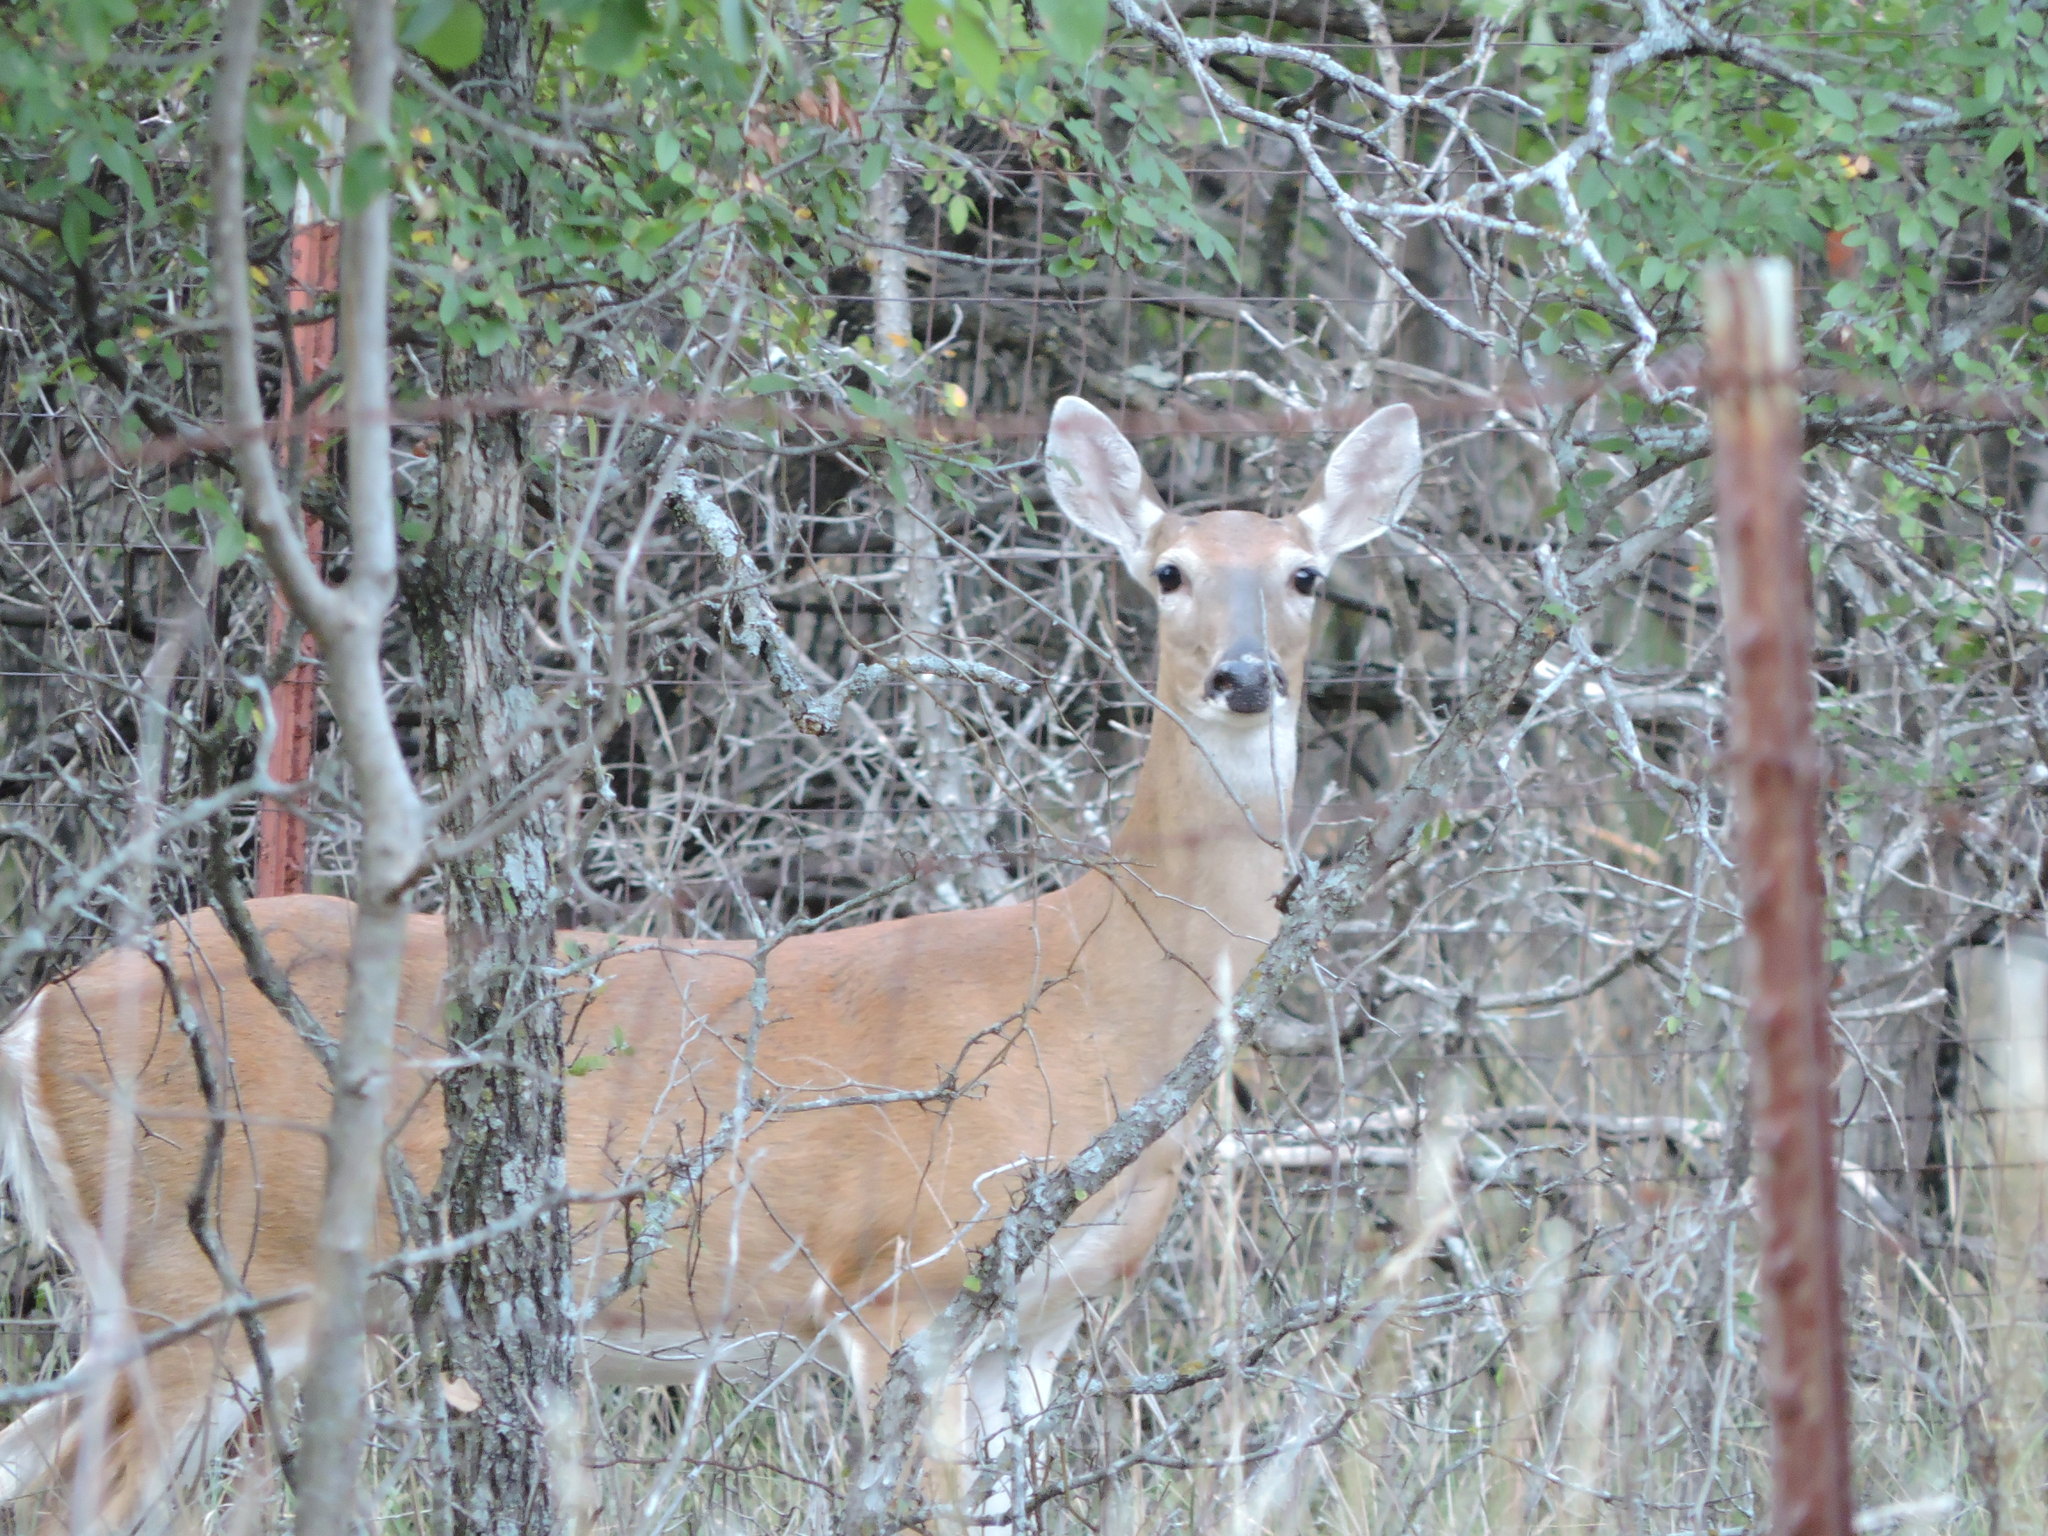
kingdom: Animalia
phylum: Chordata
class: Mammalia
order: Artiodactyla
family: Cervidae
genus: Odocoileus
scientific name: Odocoileus virginianus
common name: White-tailed deer
